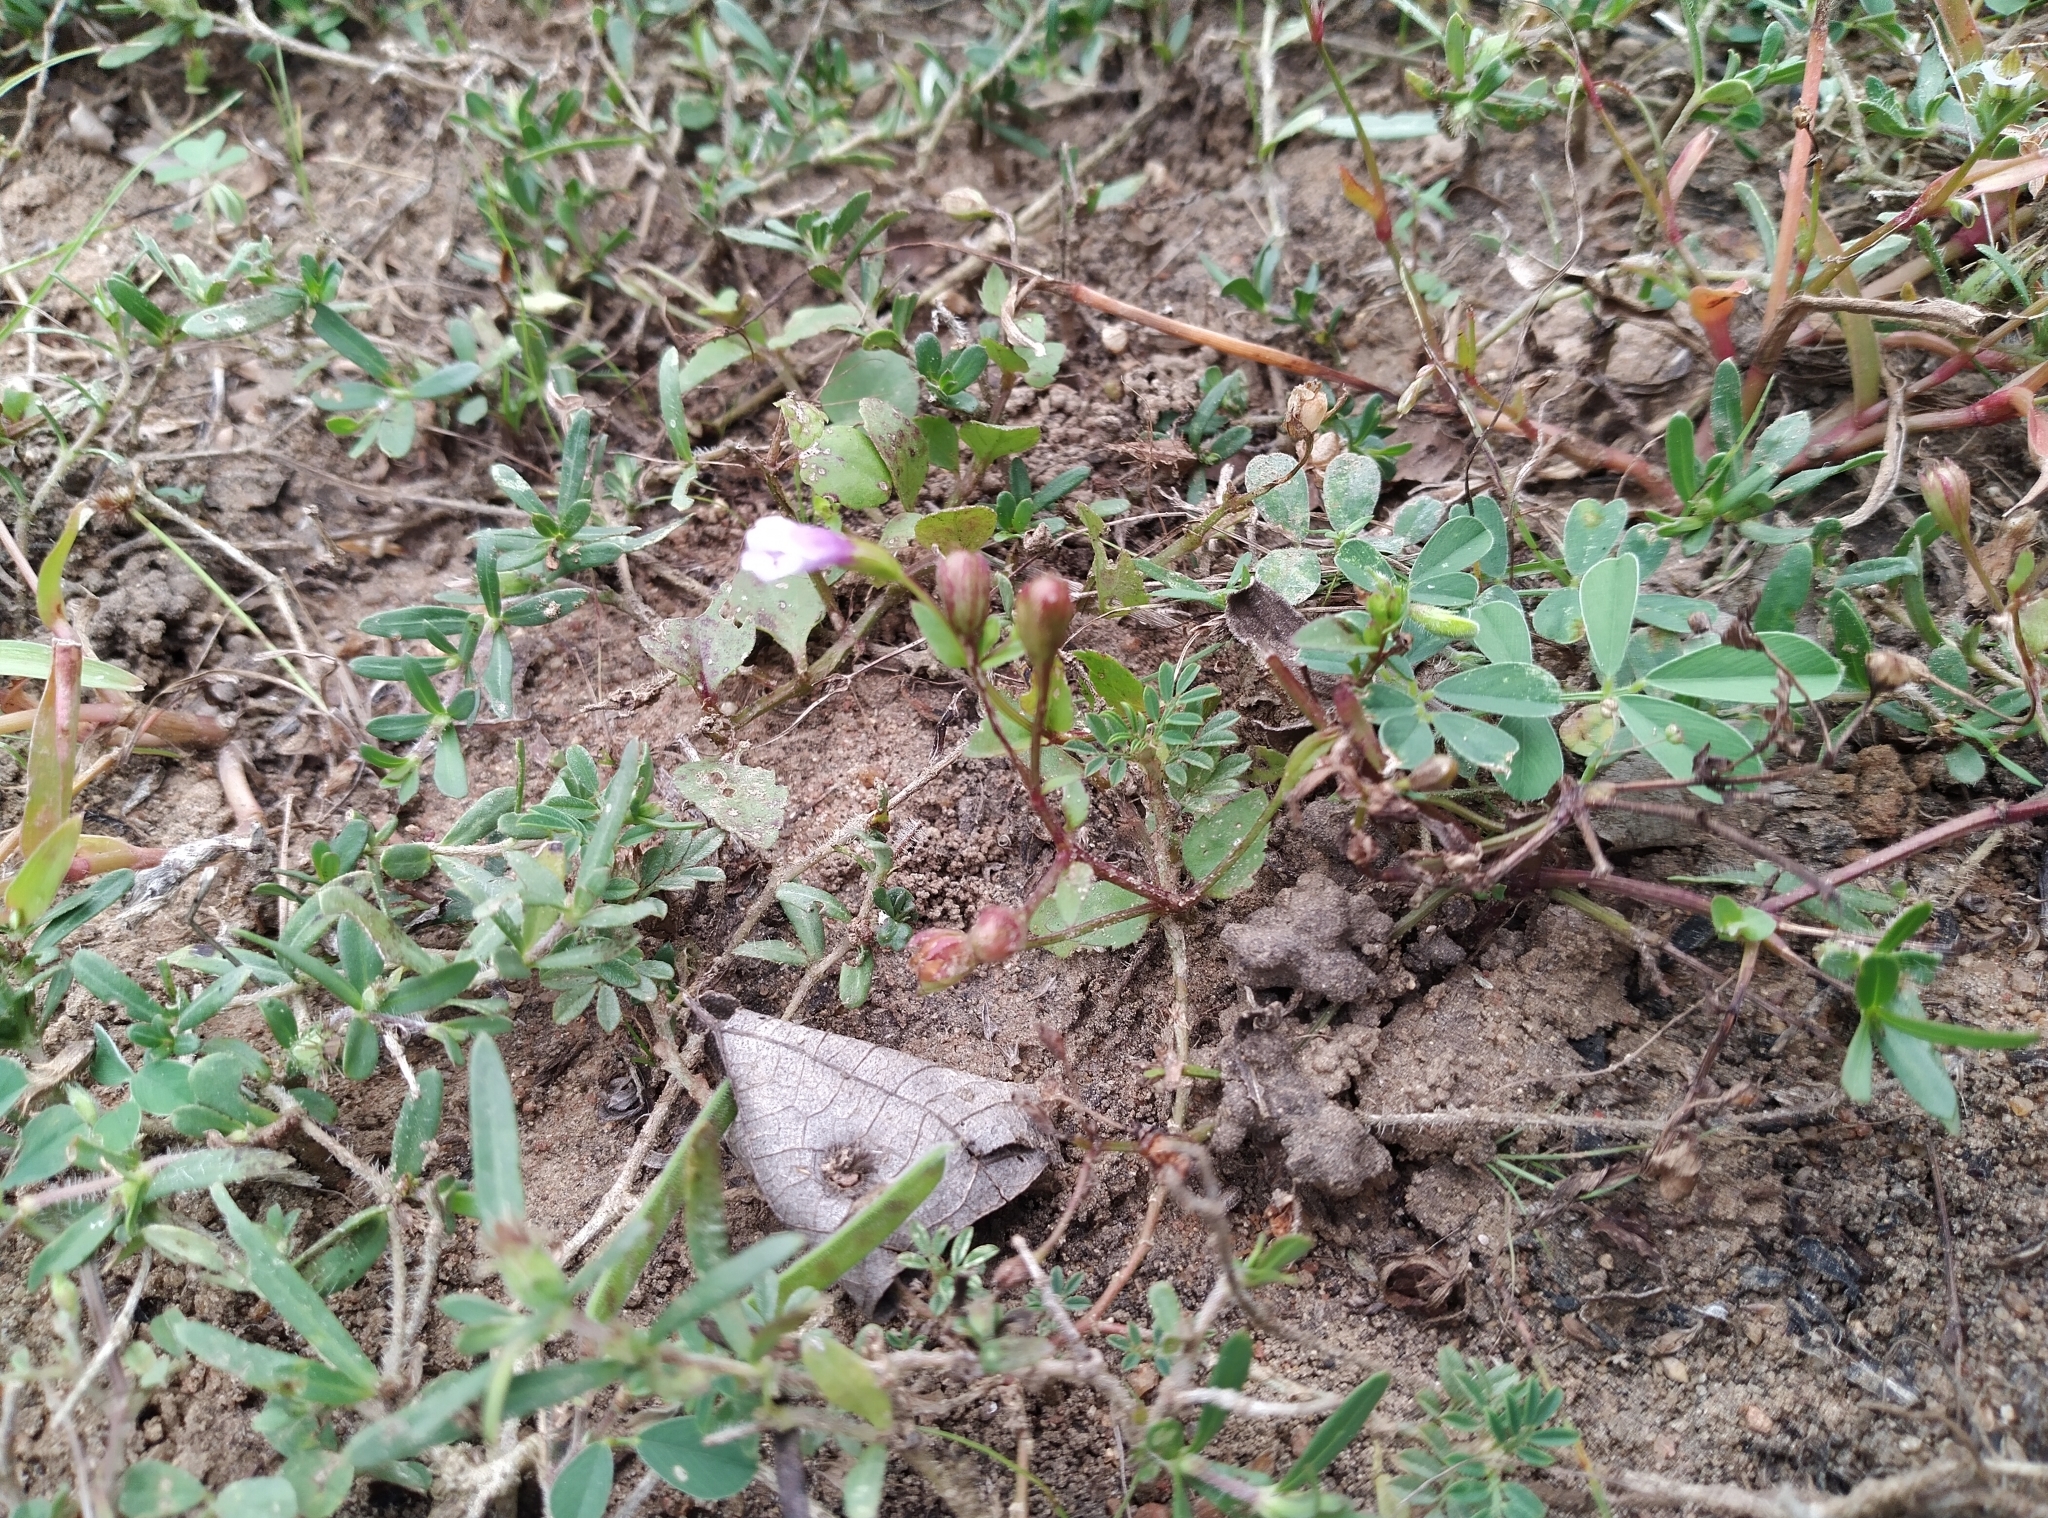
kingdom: Plantae
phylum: Tracheophyta
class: Magnoliopsida
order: Lamiales
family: Linderniaceae
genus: Torenia
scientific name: Torenia crustacea
